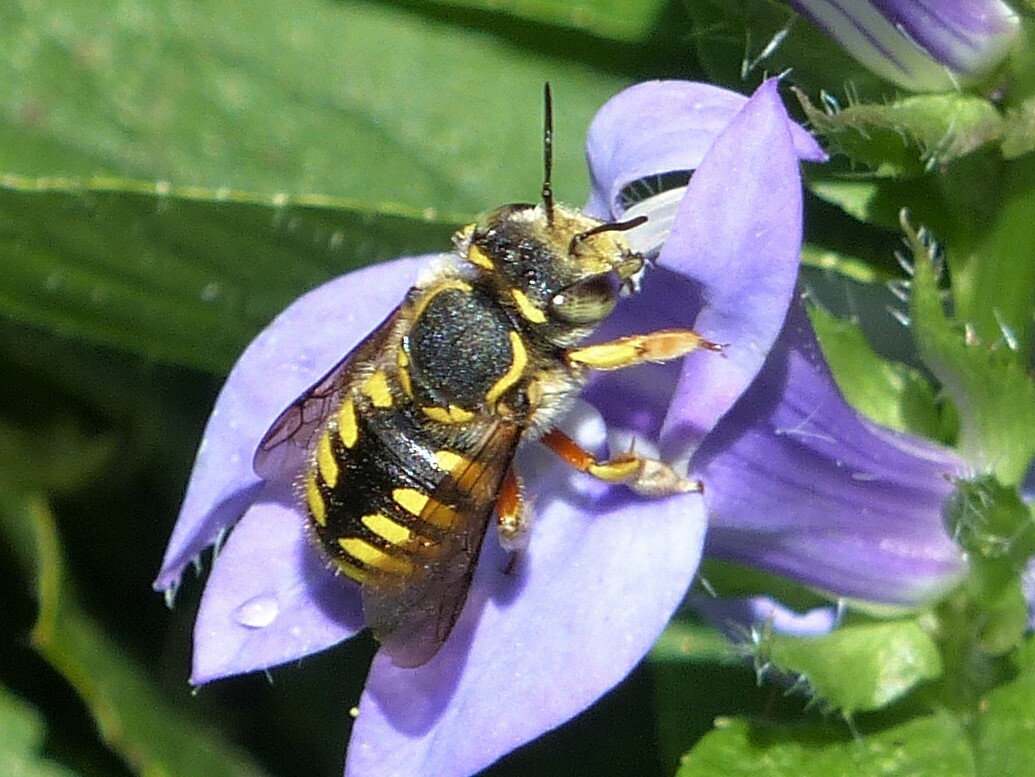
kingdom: Animalia
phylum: Arthropoda
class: Insecta
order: Hymenoptera
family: Megachilidae
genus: Anthidium
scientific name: Anthidium manicatum
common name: Wool carder bee
